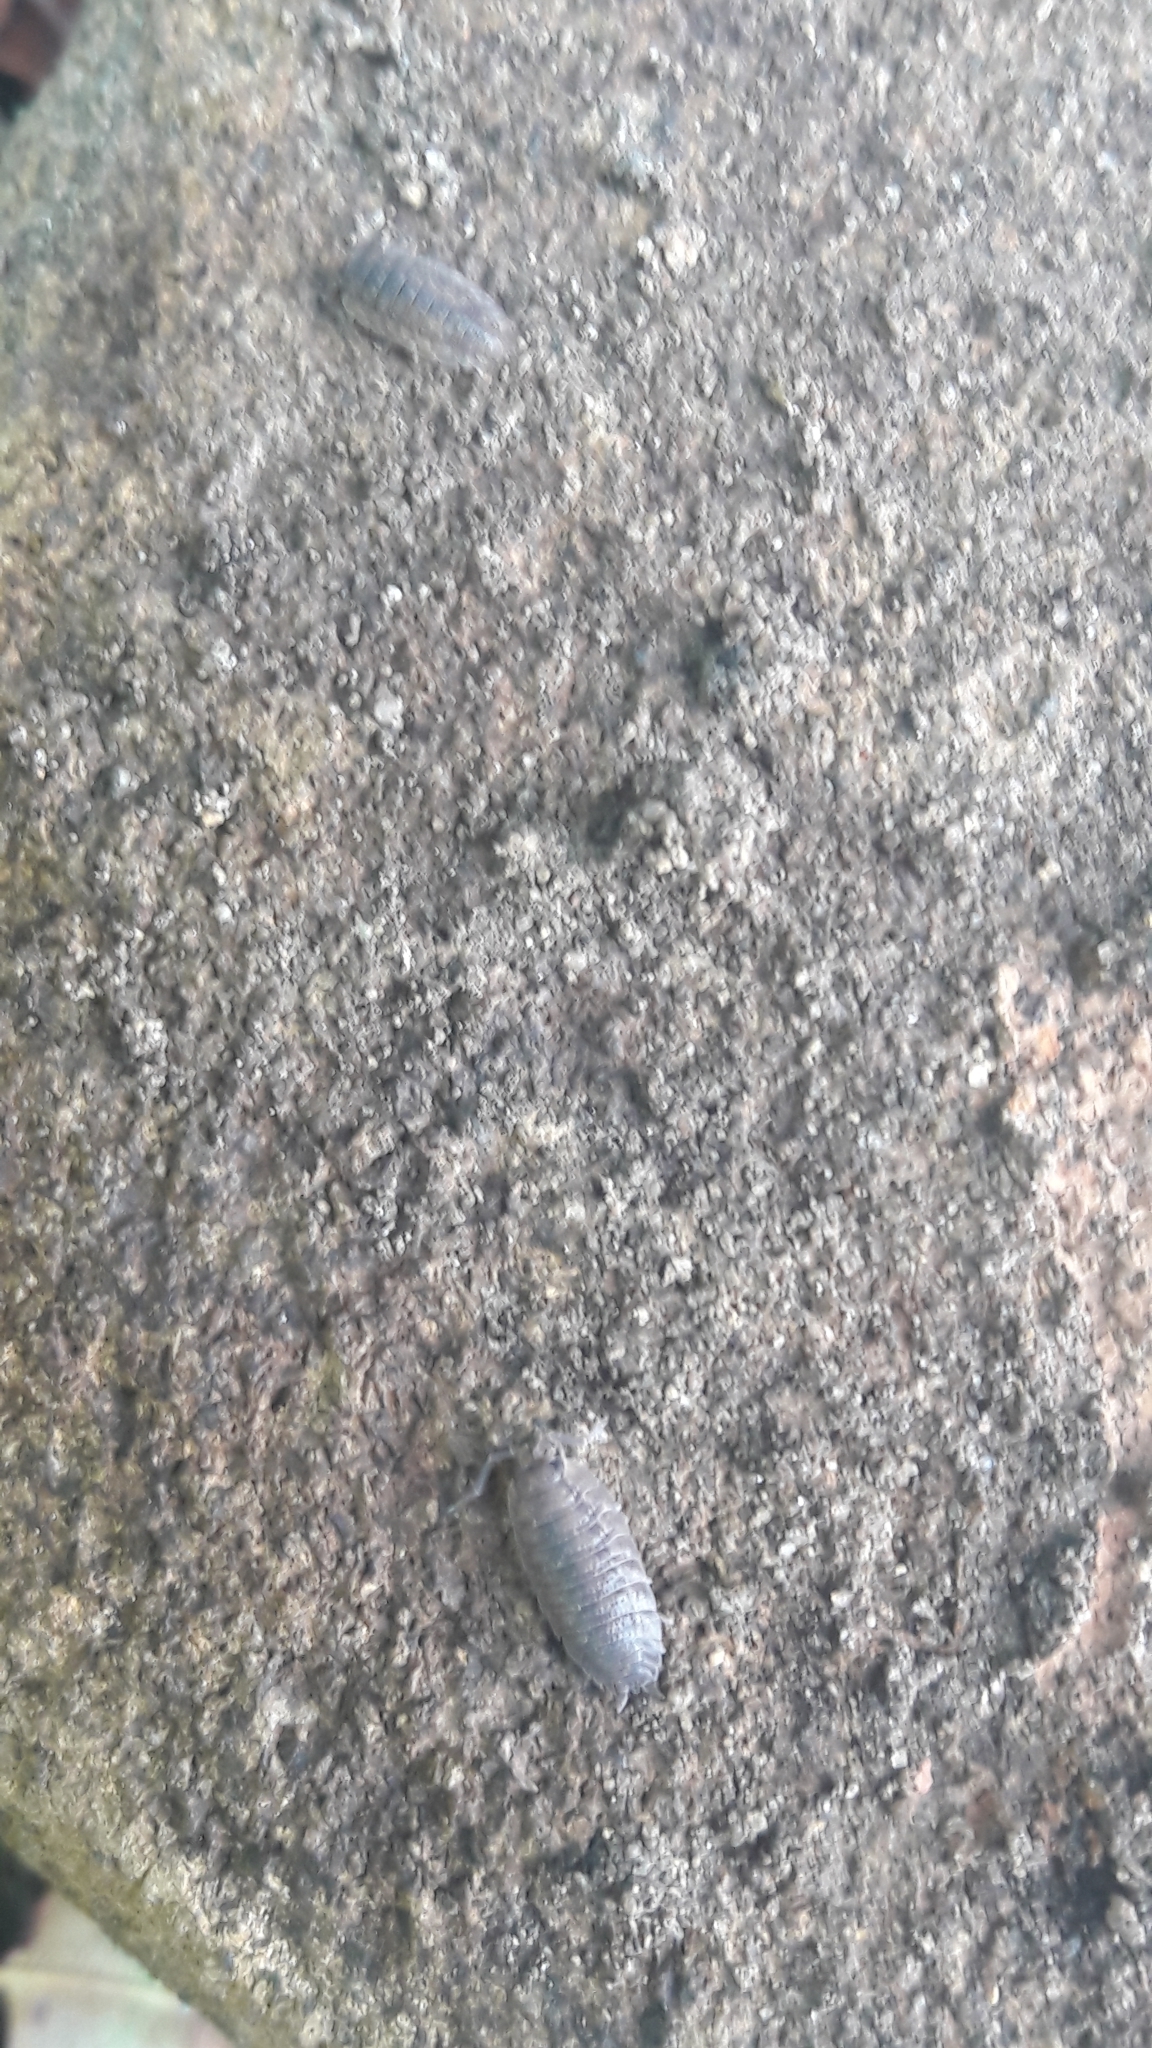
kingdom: Animalia
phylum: Arthropoda
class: Malacostraca
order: Isopoda
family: Porcellionidae
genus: Porcellio
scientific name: Porcellio scaber
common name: Common rough woodlouse
